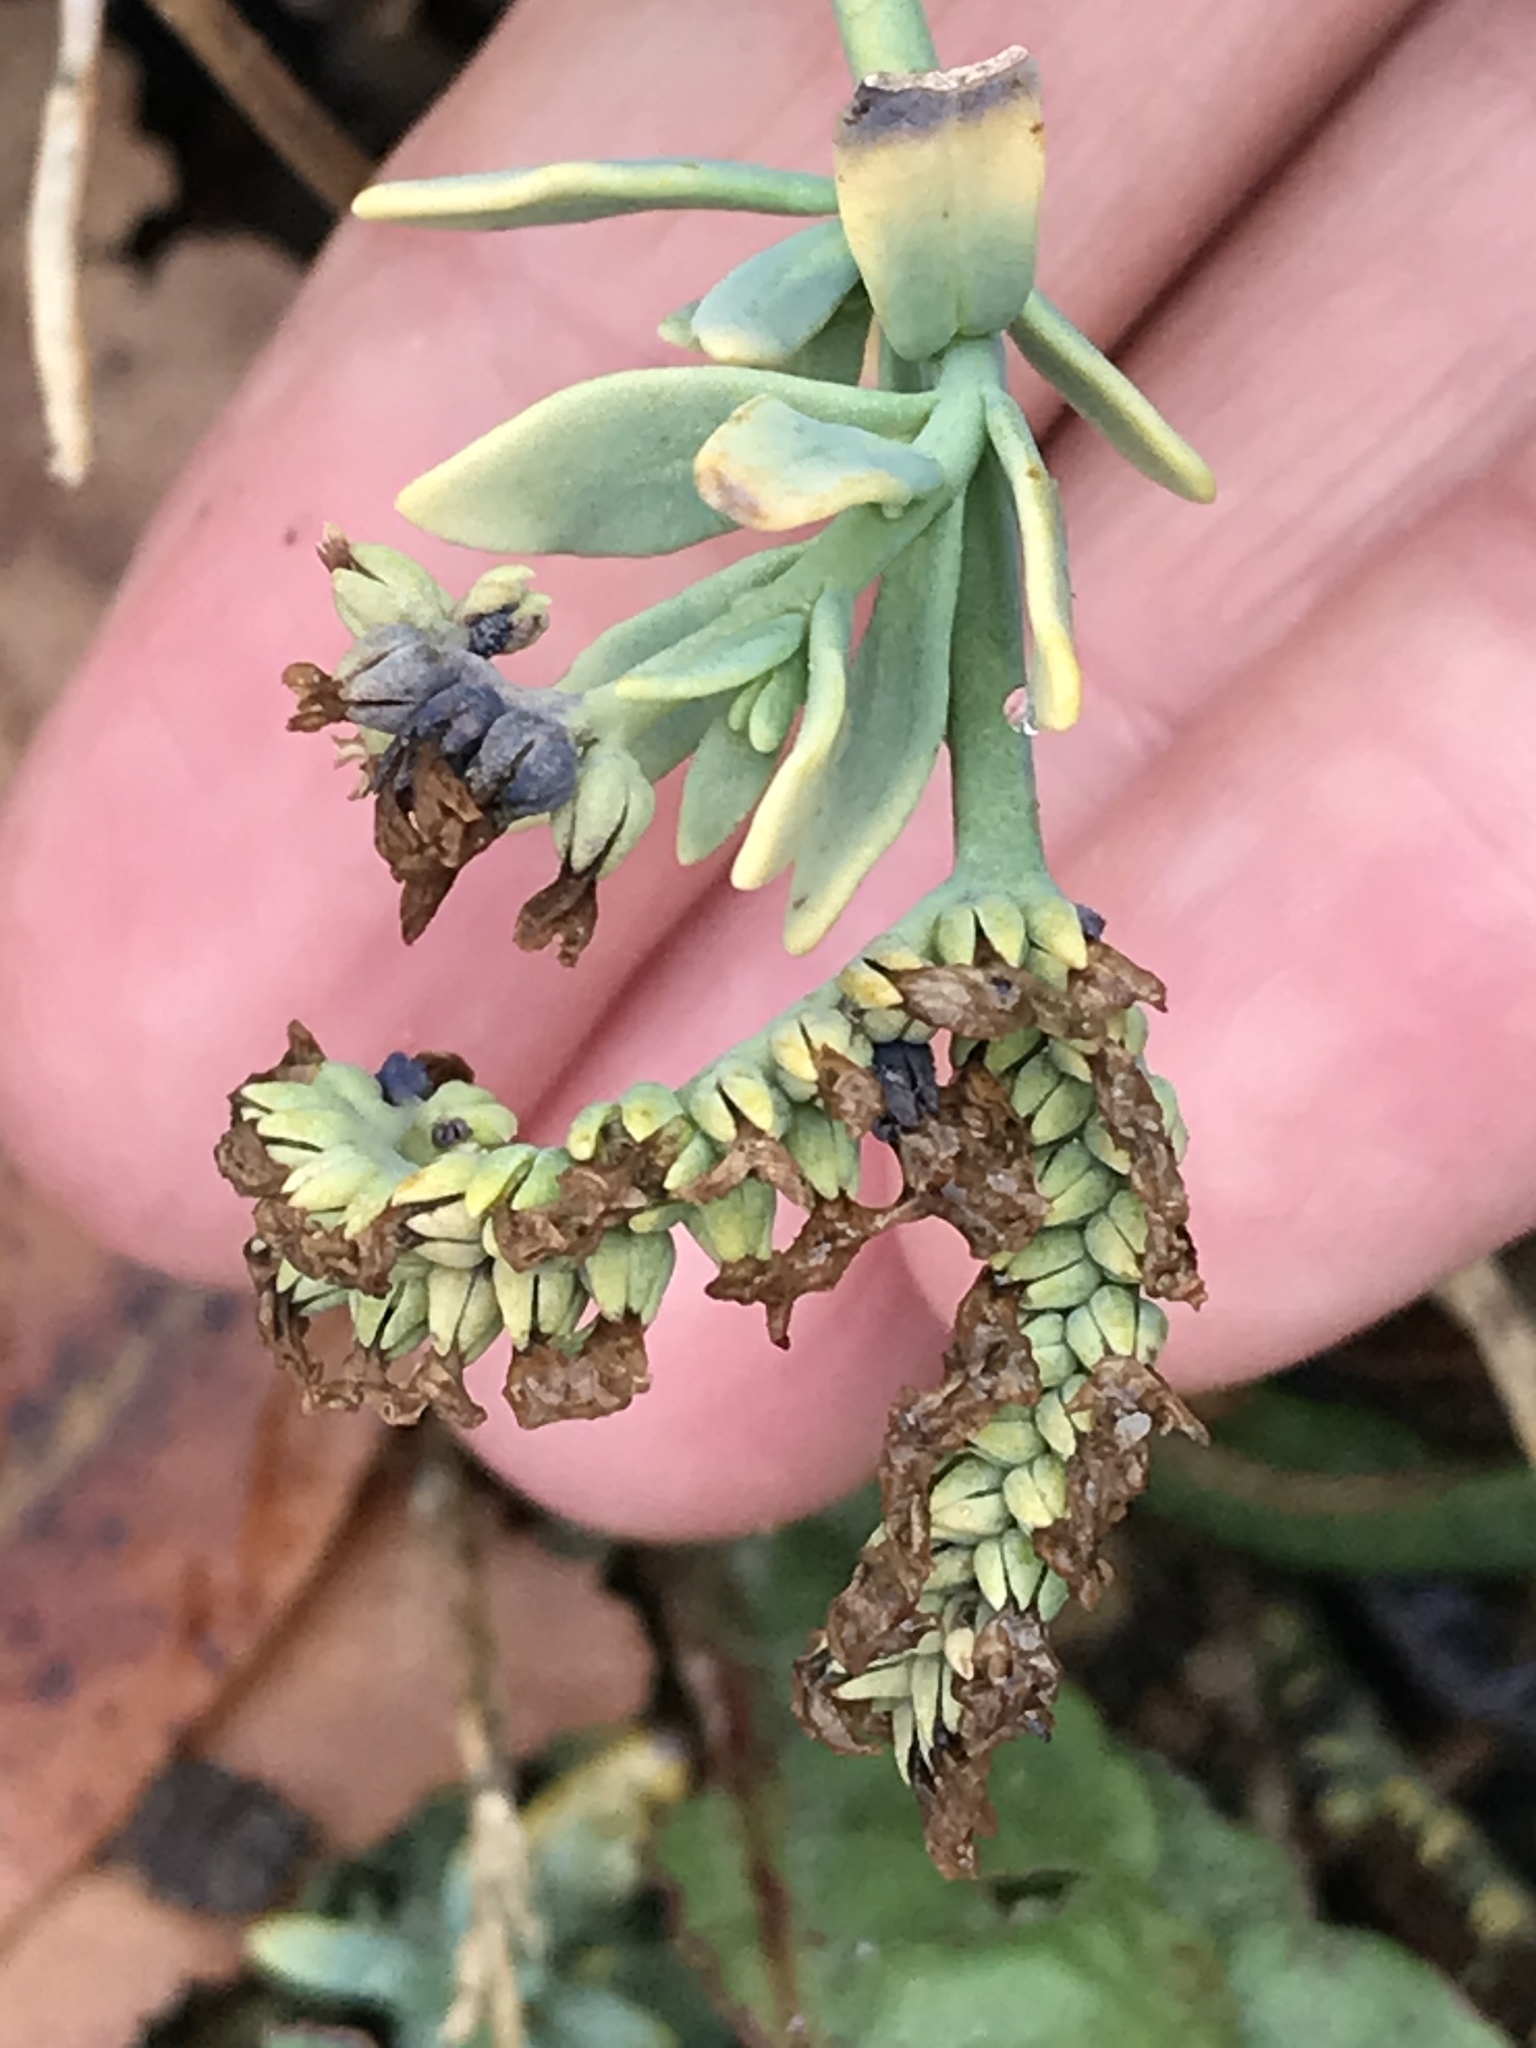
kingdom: Plantae
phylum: Tracheophyta
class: Magnoliopsida
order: Boraginales
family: Heliotropiaceae
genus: Heliotropium
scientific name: Heliotropium curassavicum
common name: Seaside heliotrope
